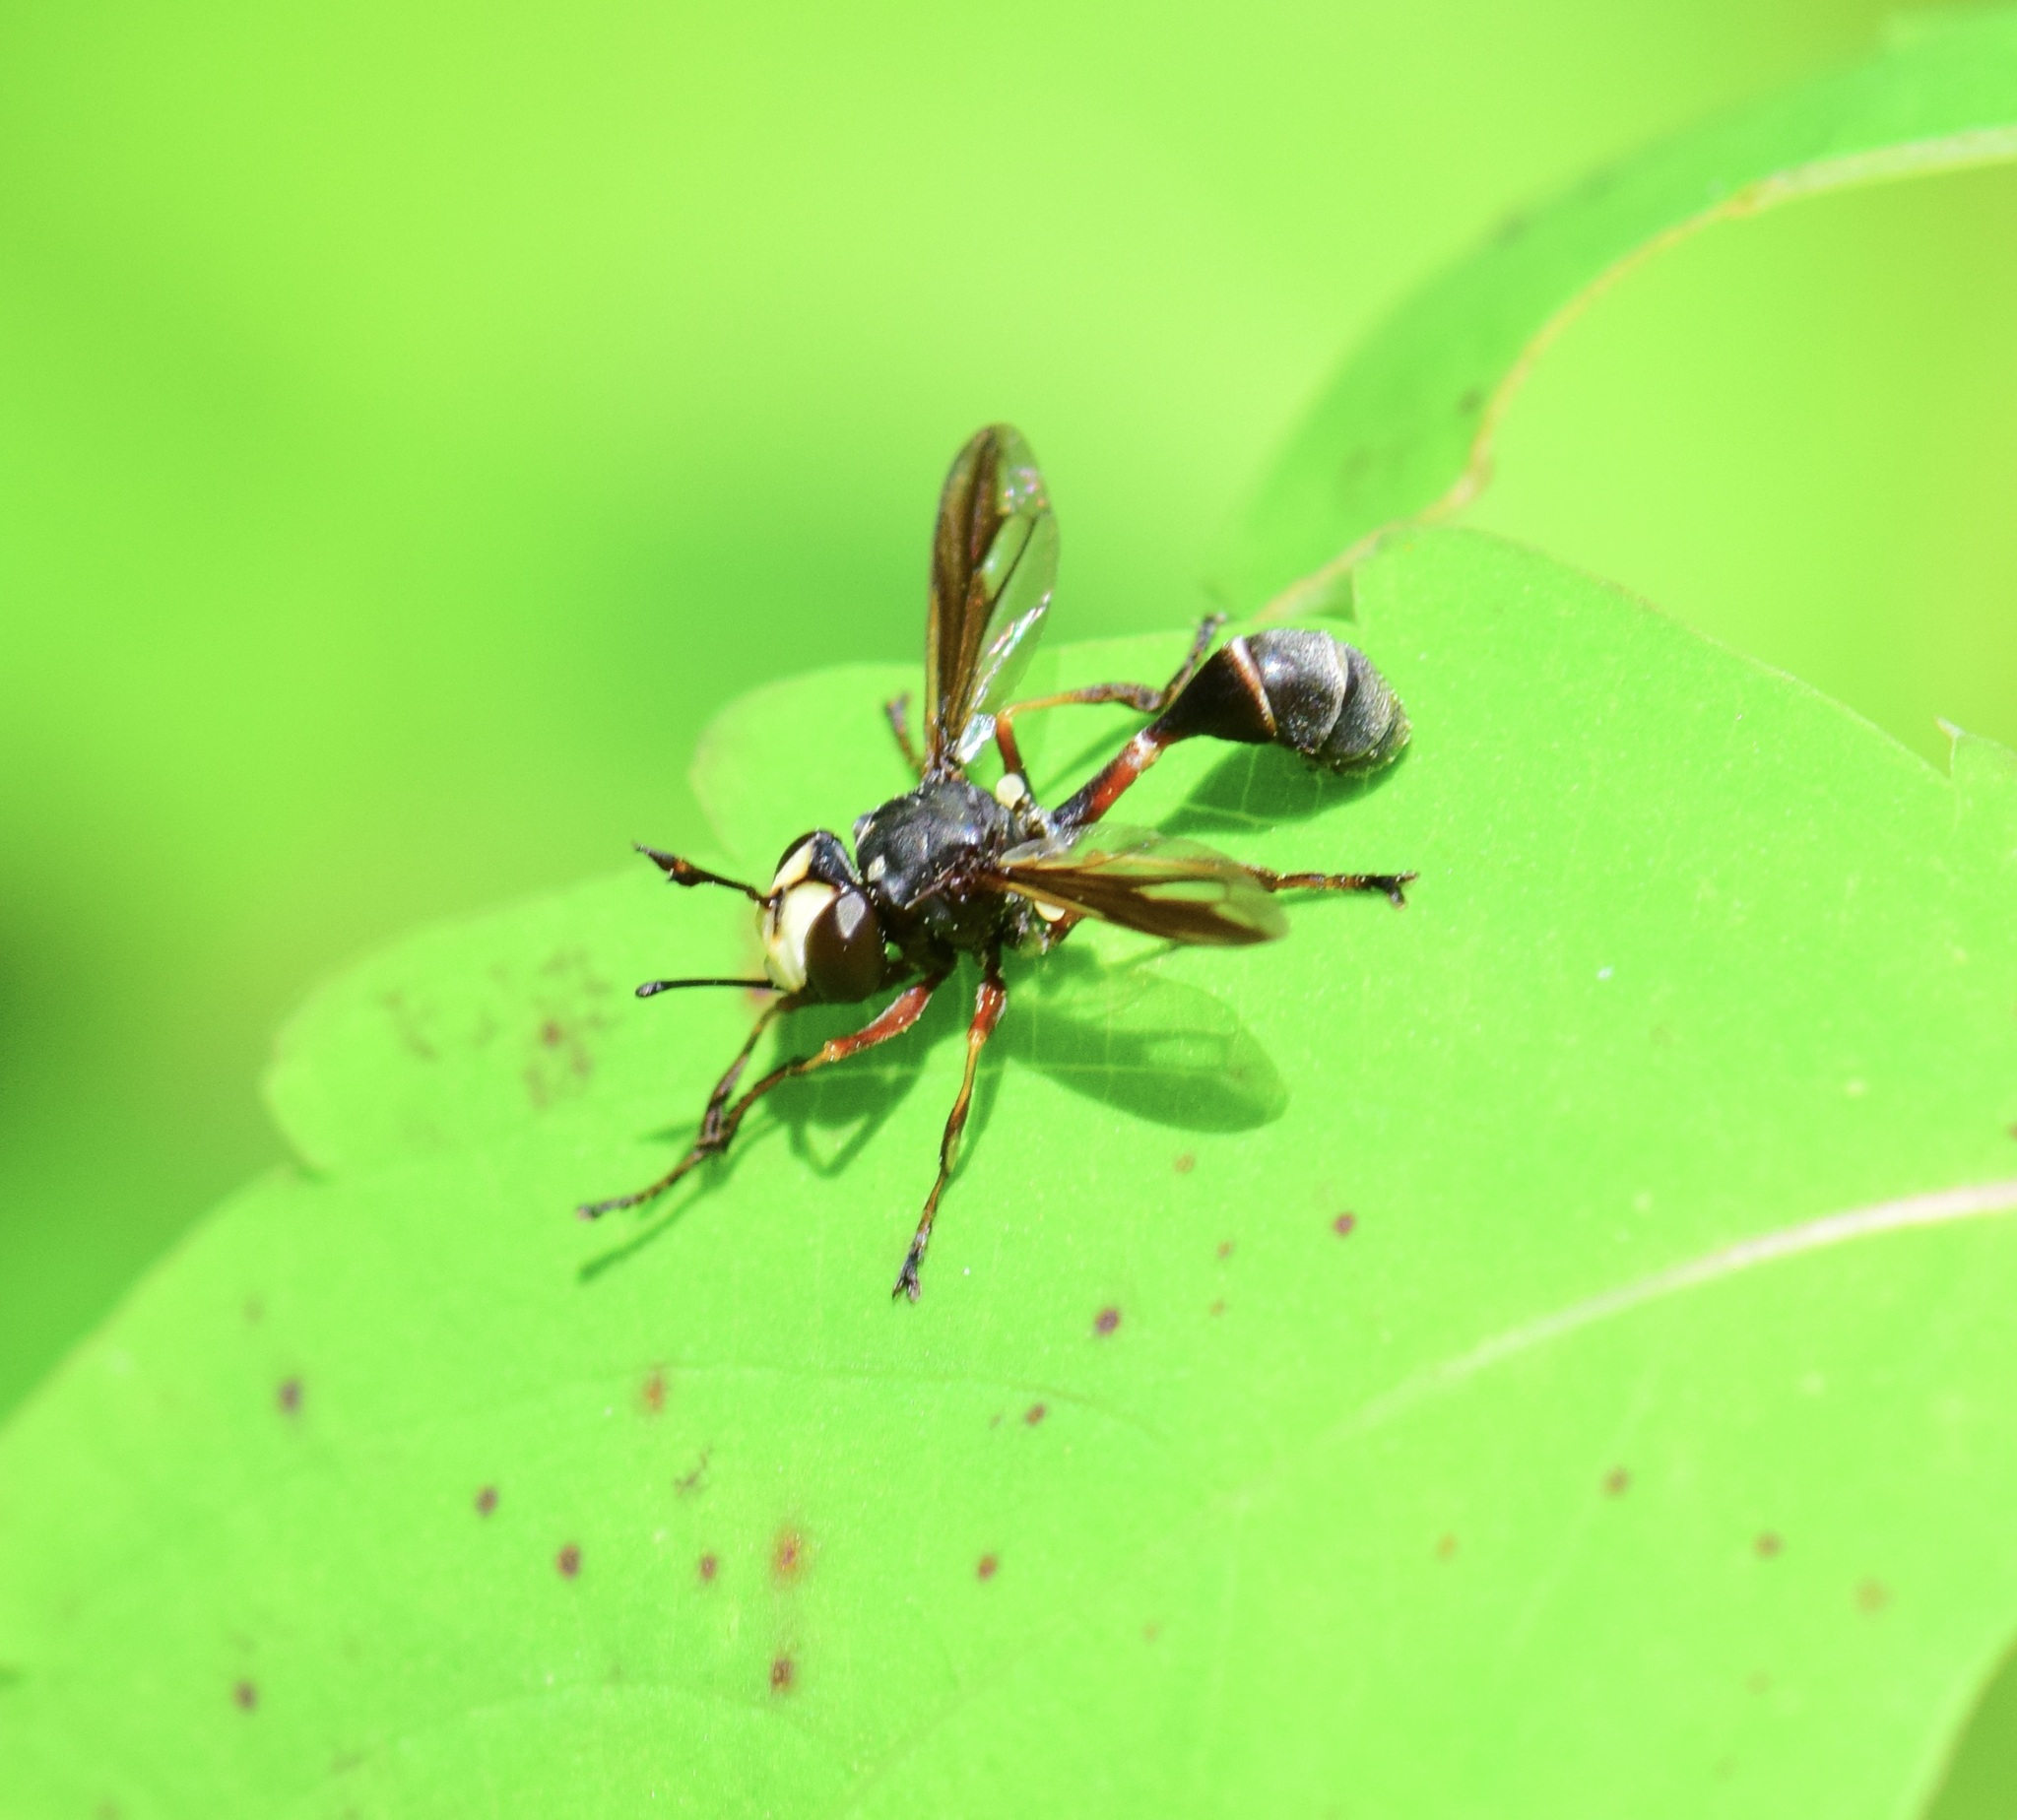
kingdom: Animalia
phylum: Arthropoda
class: Insecta
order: Diptera
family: Conopidae
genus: Physocephala
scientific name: Physocephala furcillata
